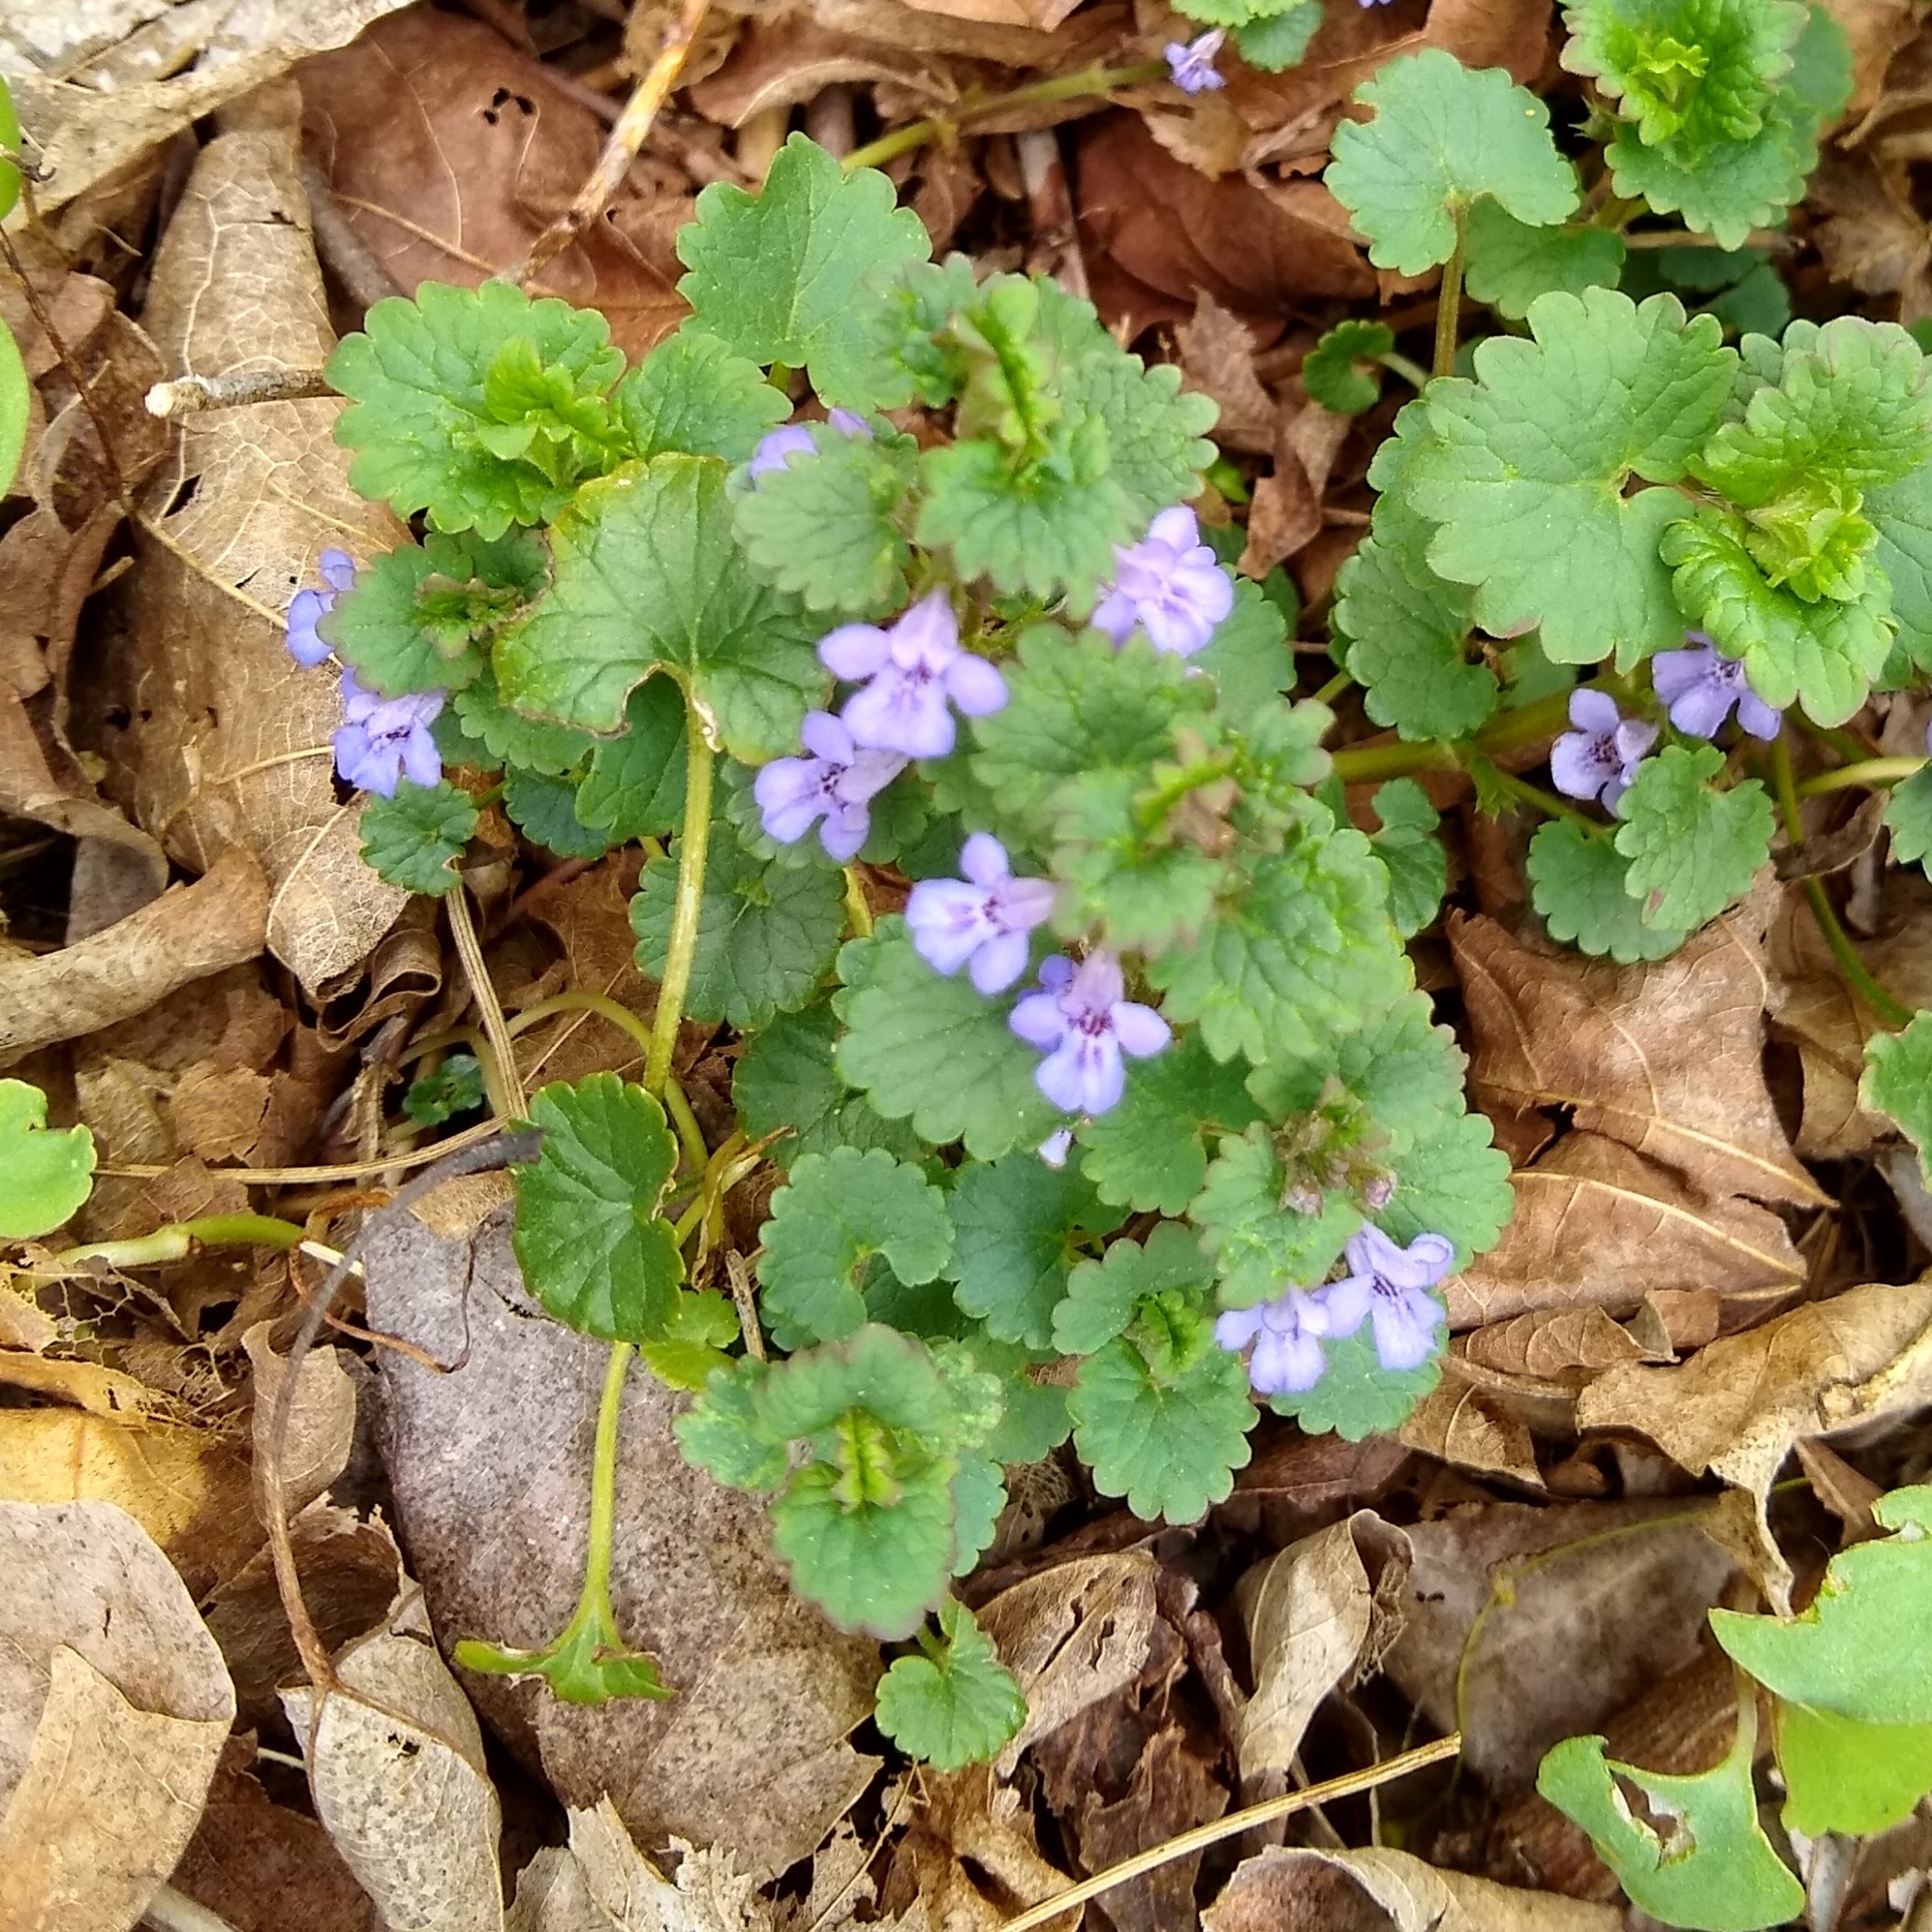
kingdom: Plantae
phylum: Tracheophyta
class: Magnoliopsida
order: Lamiales
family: Lamiaceae
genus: Glechoma
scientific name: Glechoma hederacea
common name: Ground ivy
